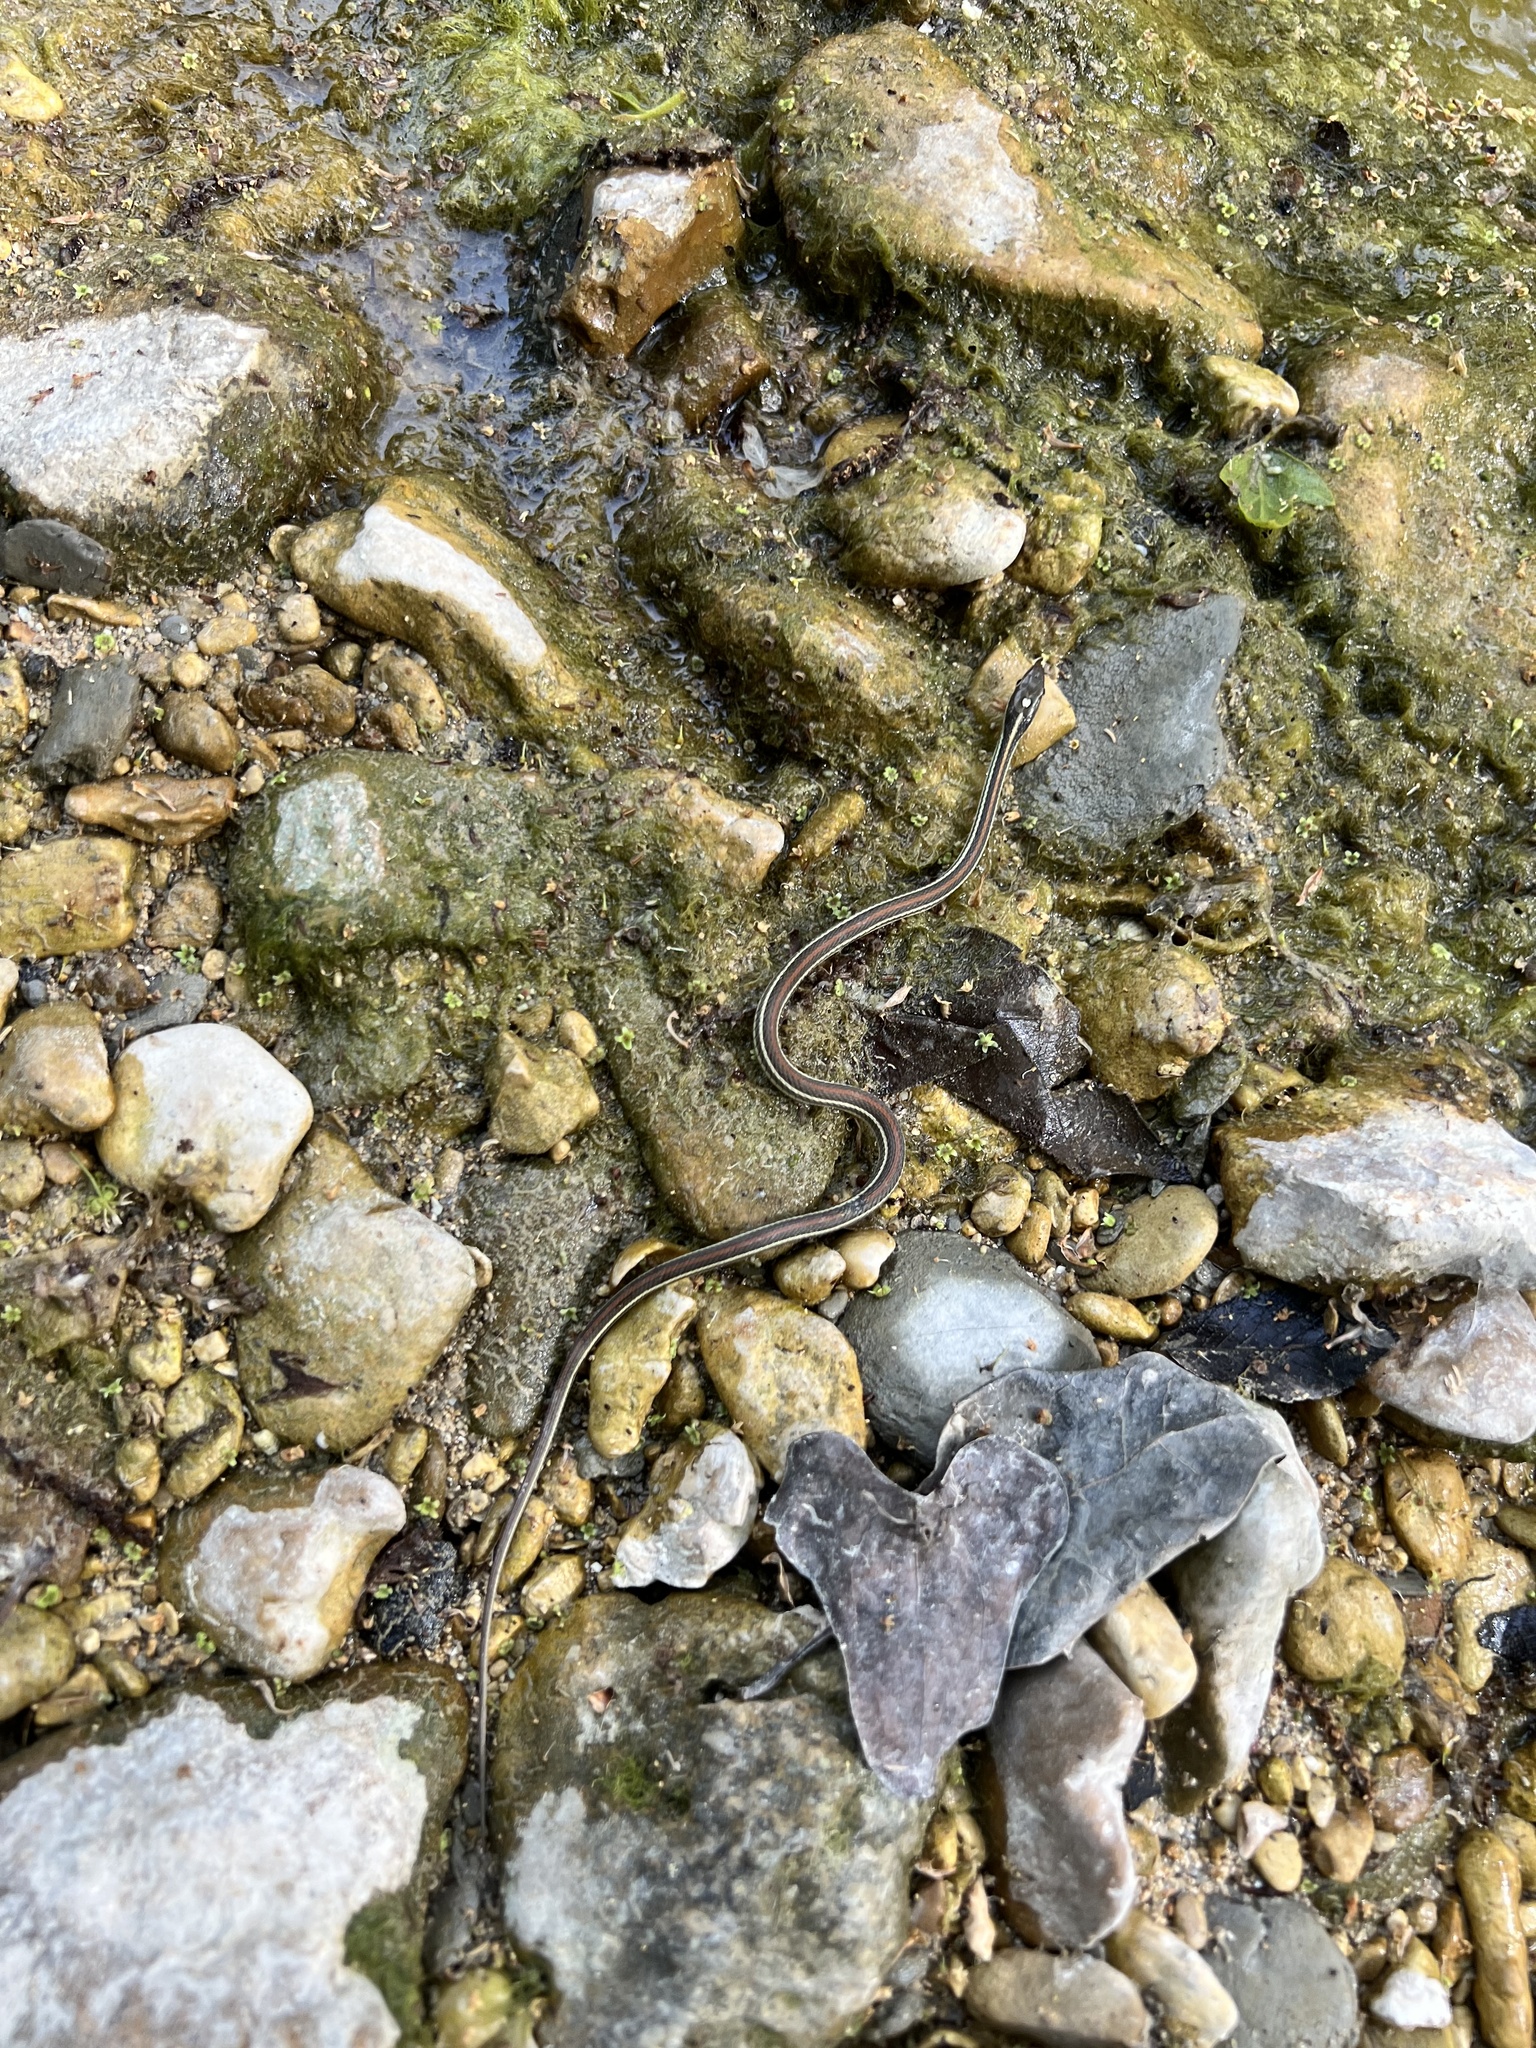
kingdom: Animalia
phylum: Chordata
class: Squamata
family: Colubridae
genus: Thamnophis
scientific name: Thamnophis proximus
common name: Western ribbon snake
